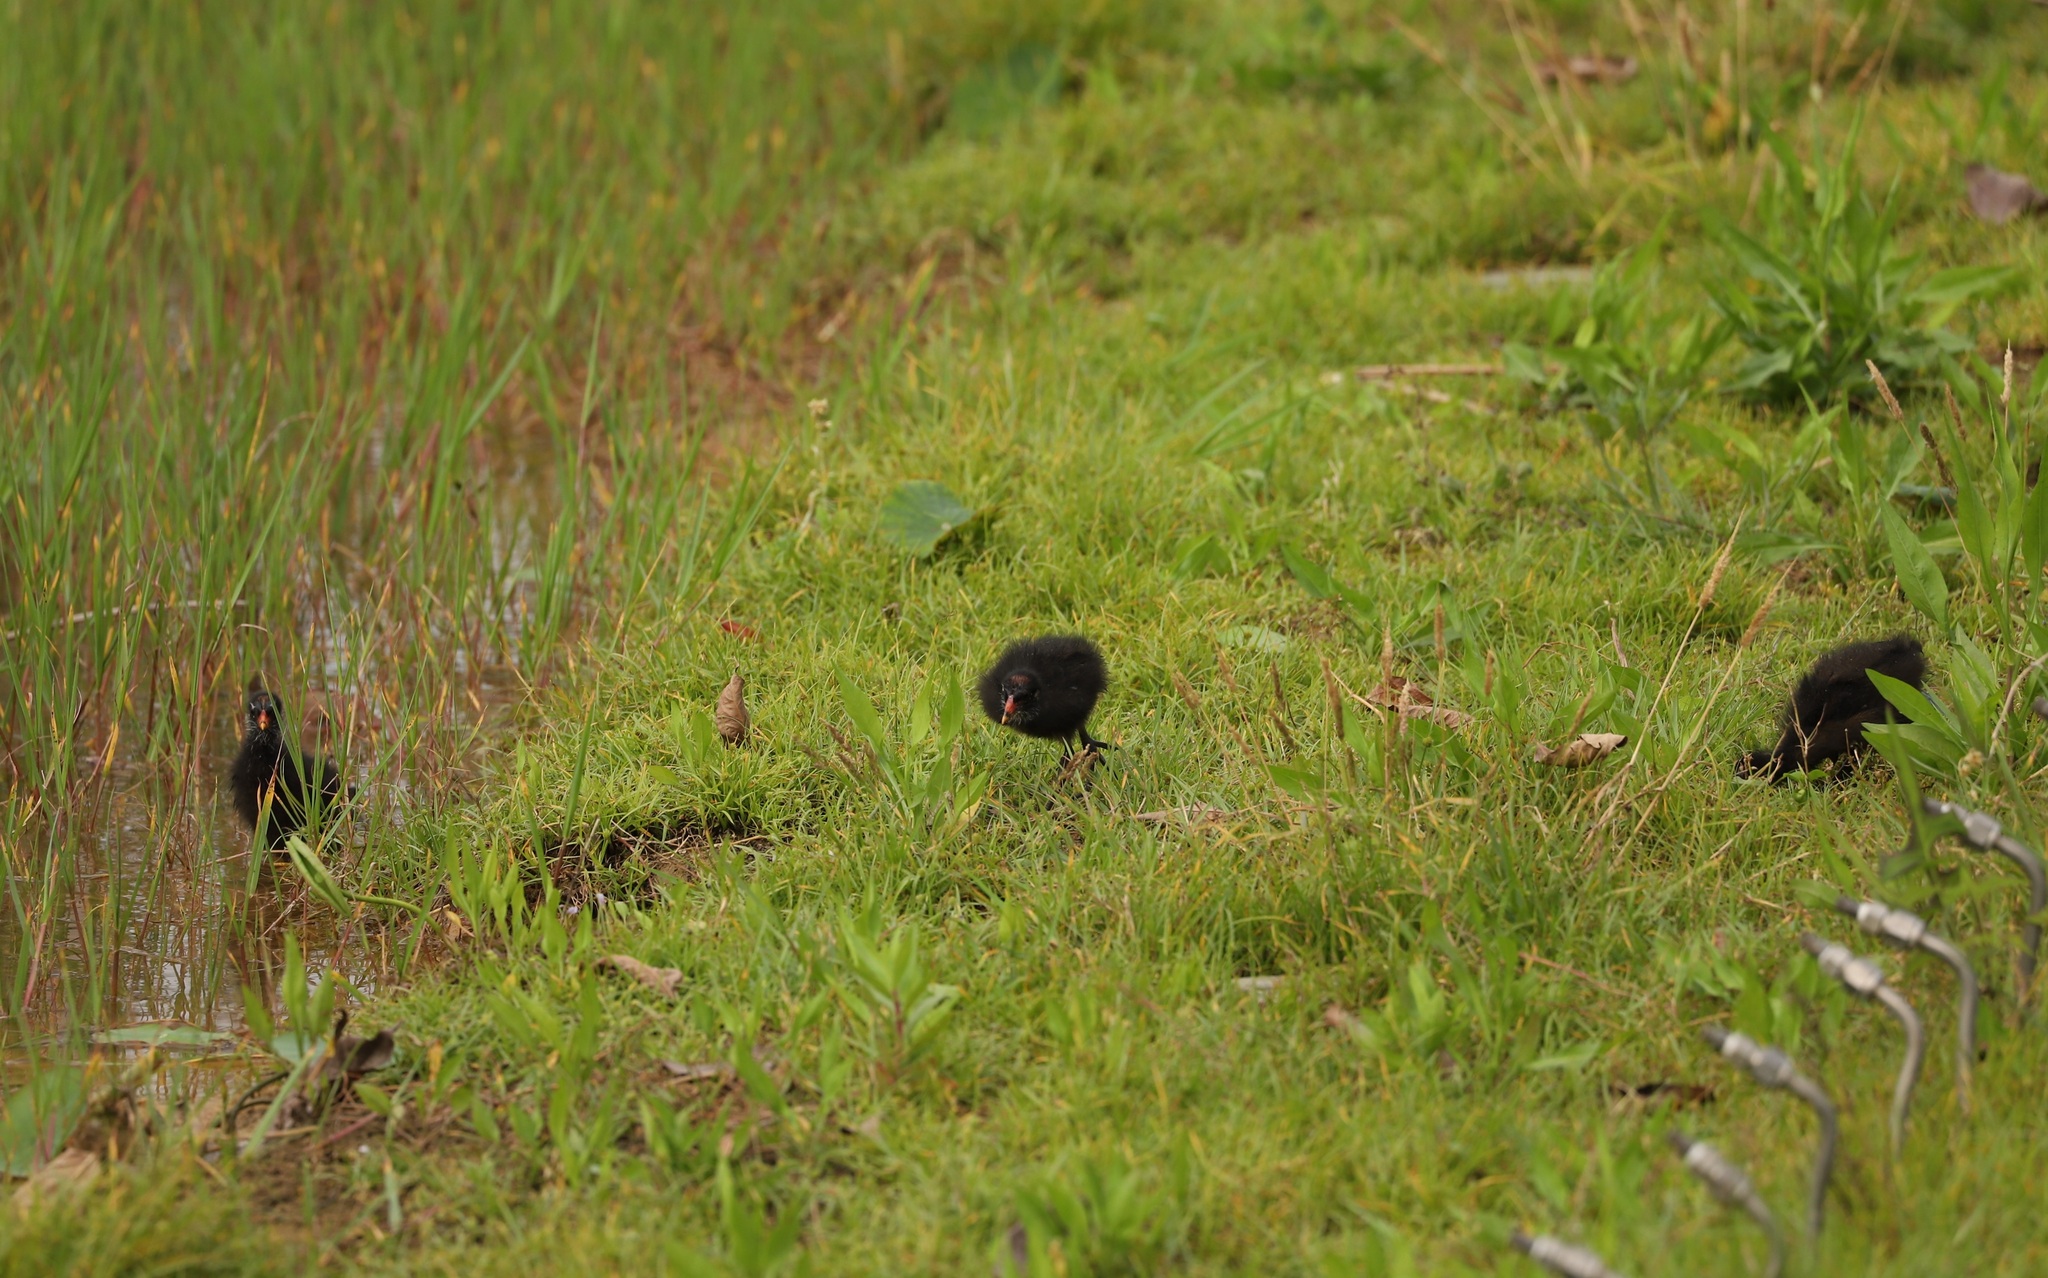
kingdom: Animalia
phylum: Chordata
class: Aves
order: Gruiformes
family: Rallidae
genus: Gallinula
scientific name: Gallinula chloropus
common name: Common moorhen
